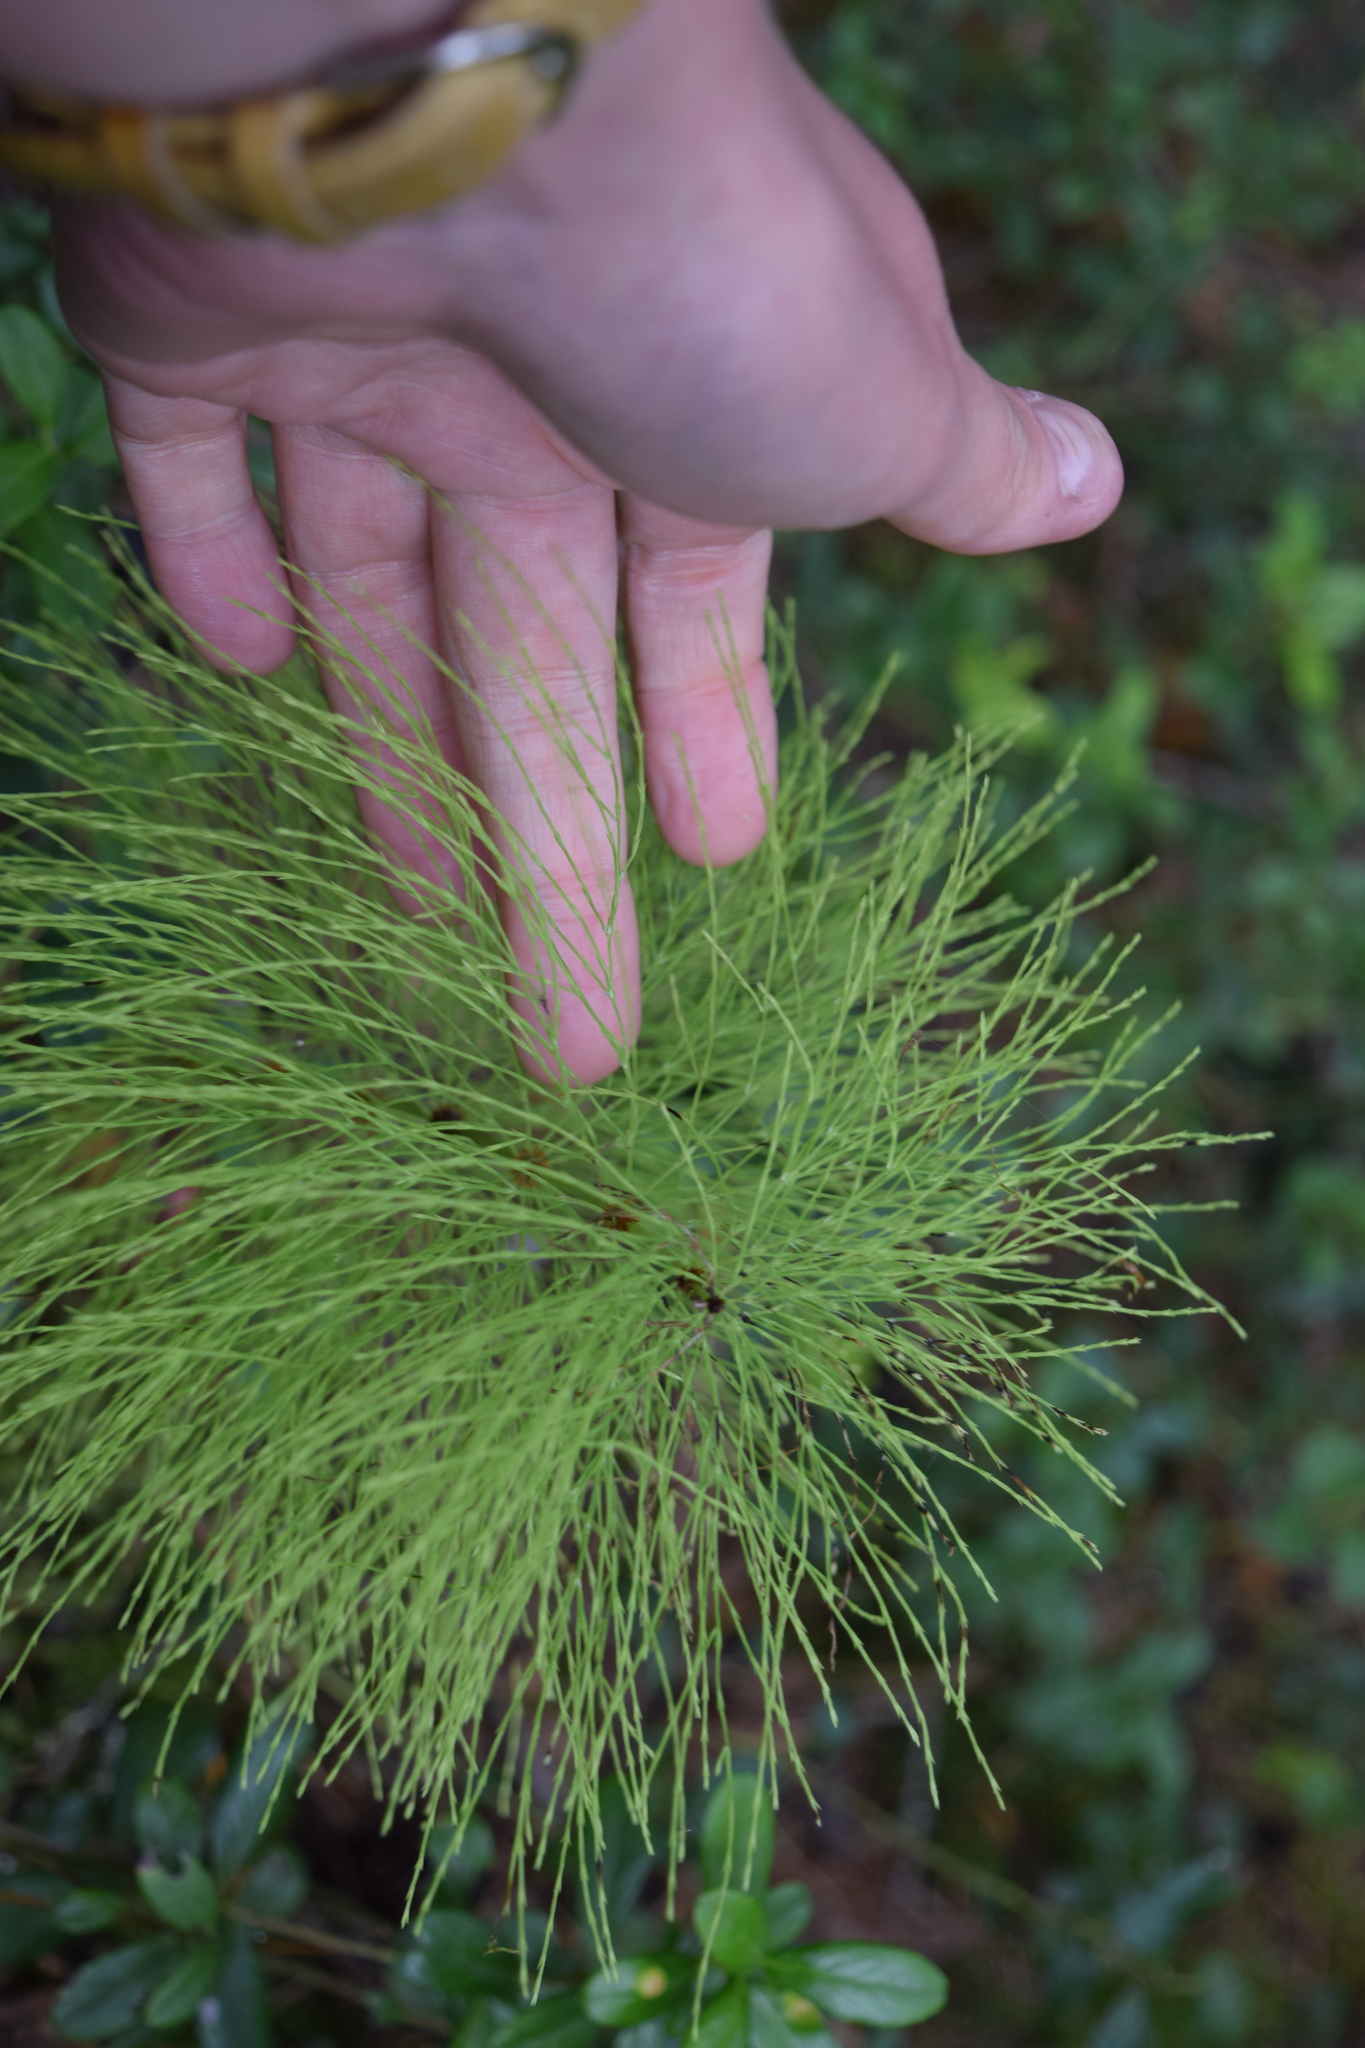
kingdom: Plantae
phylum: Tracheophyta
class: Polypodiopsida
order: Equisetales
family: Equisetaceae
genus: Equisetum
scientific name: Equisetum sylvaticum
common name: Wood horsetail
